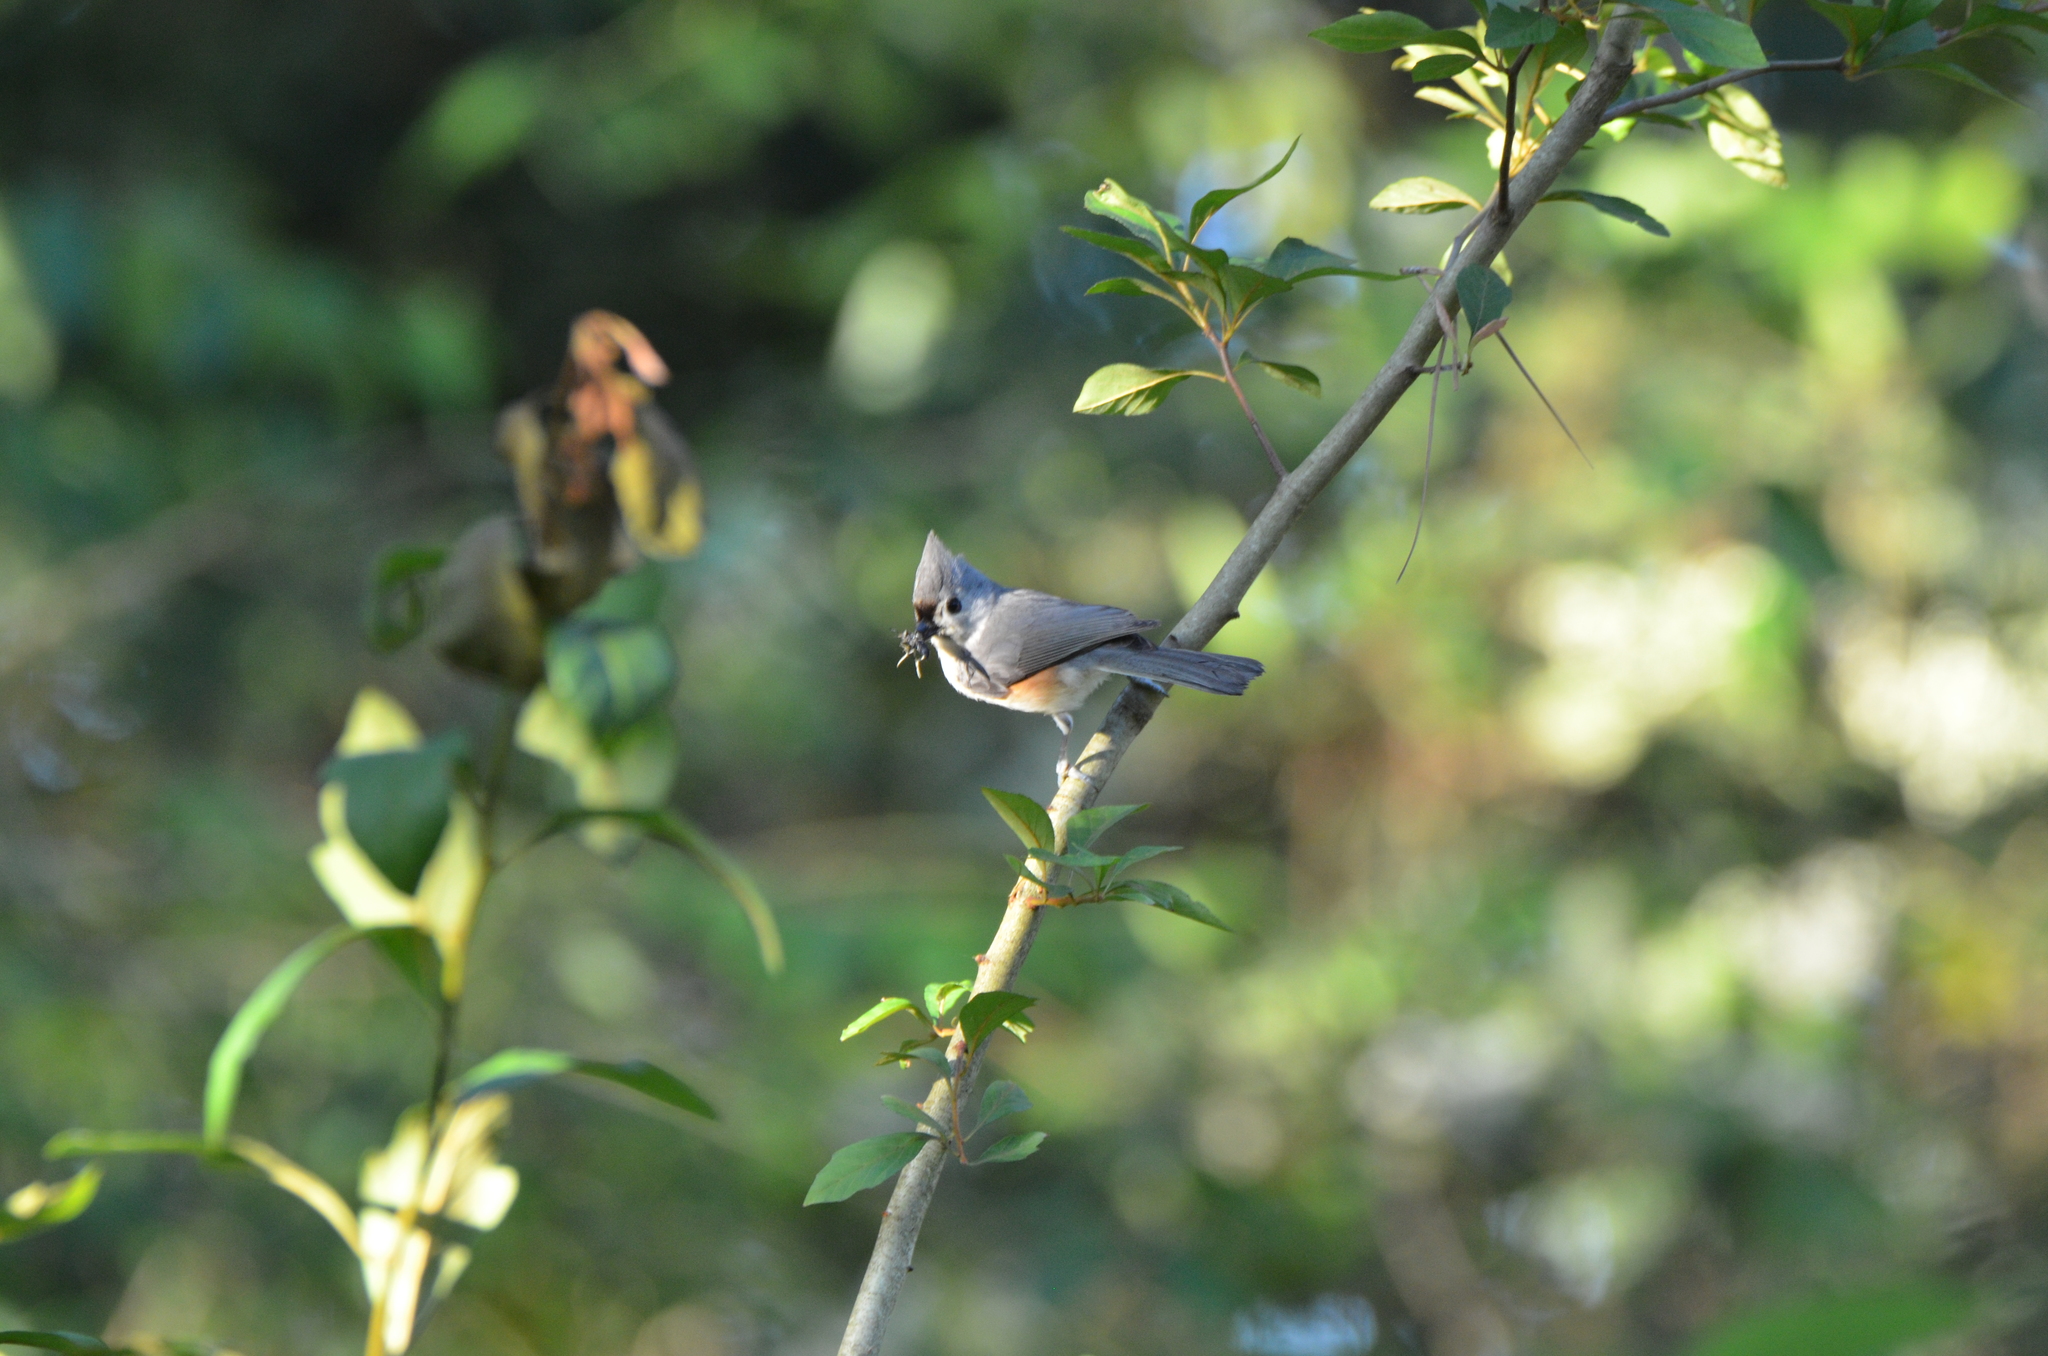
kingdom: Animalia
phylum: Chordata
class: Aves
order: Passeriformes
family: Paridae
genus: Baeolophus
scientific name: Baeolophus bicolor
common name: Tufted titmouse
